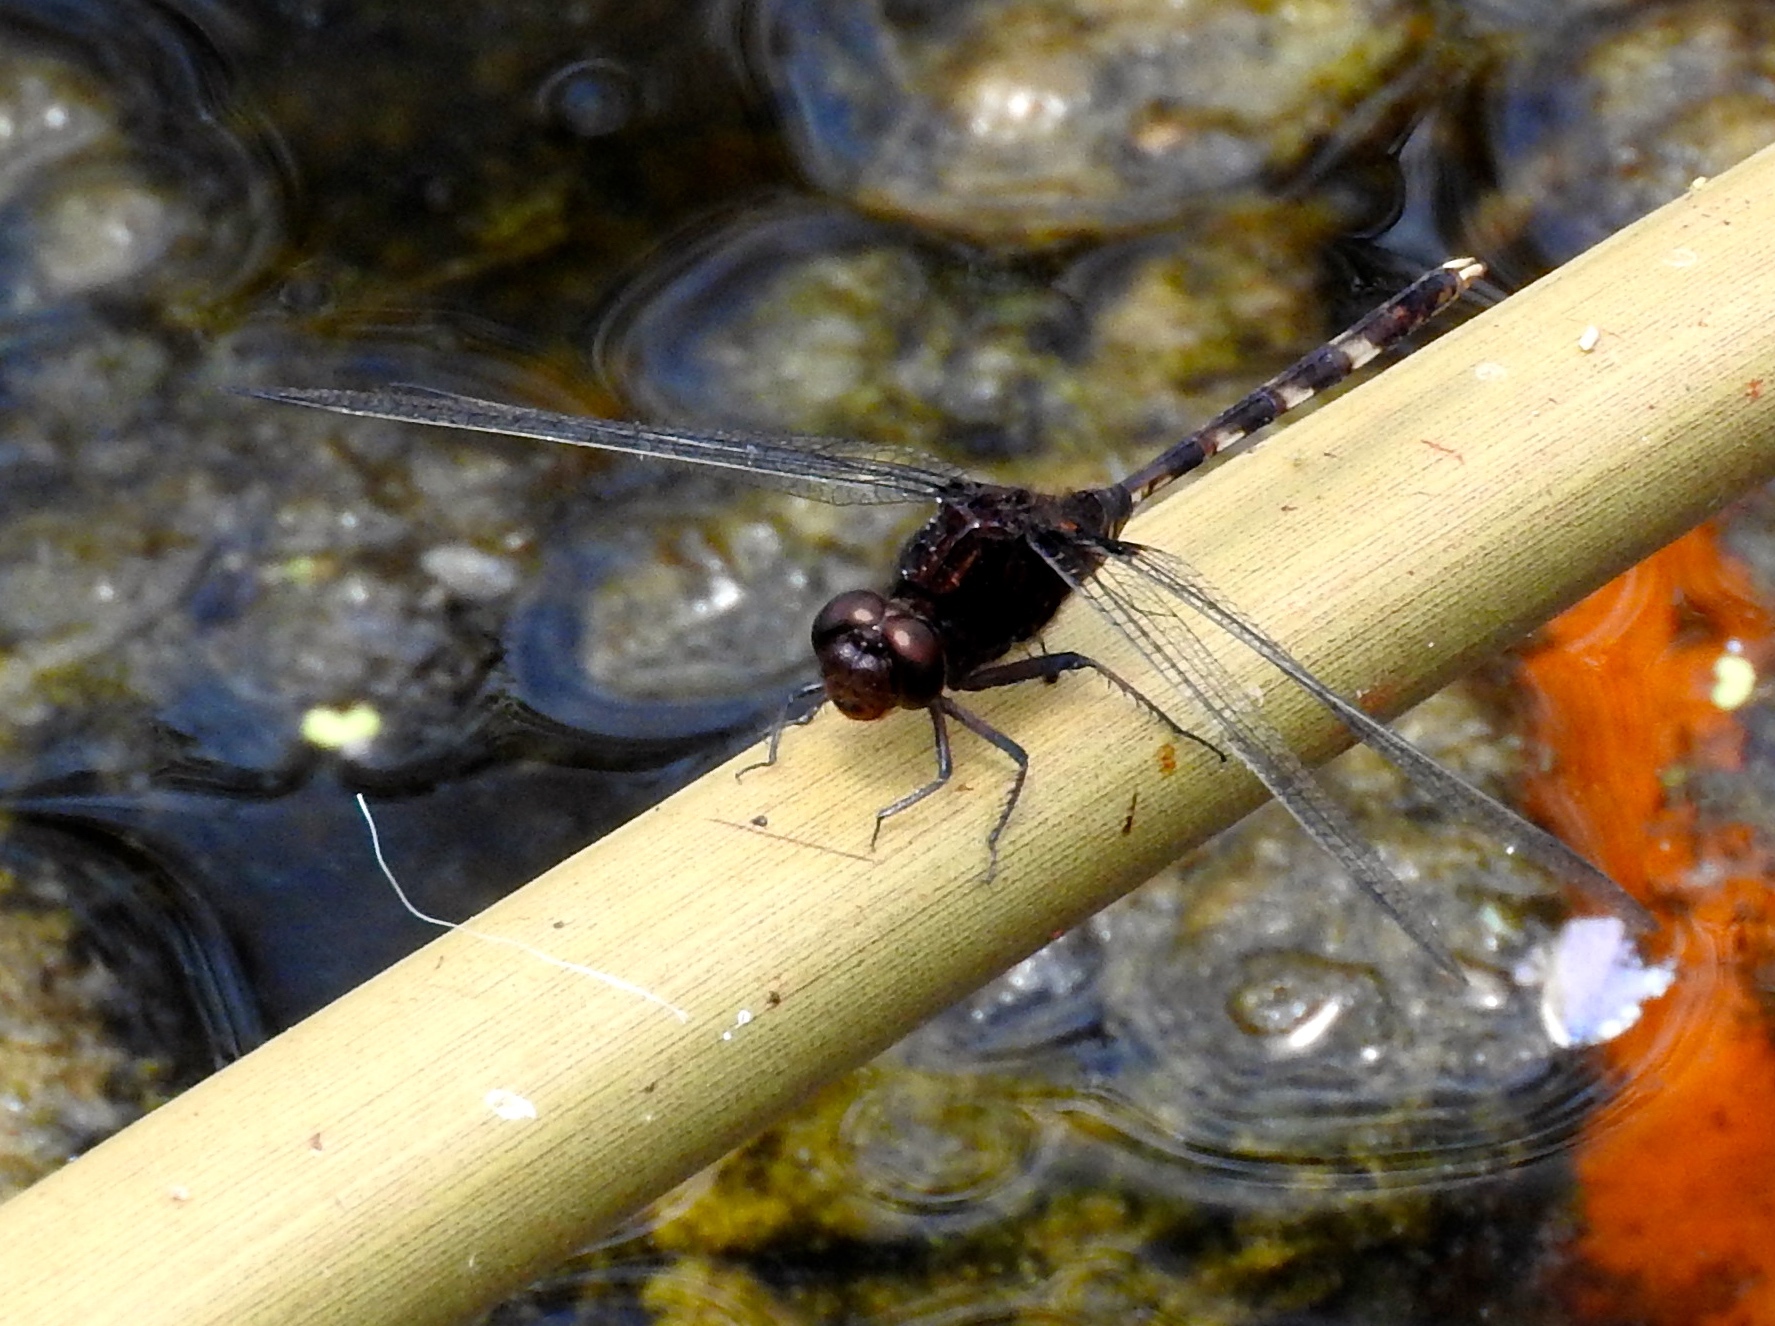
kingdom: Animalia
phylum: Arthropoda
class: Insecta
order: Odonata
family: Libellulidae
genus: Erythemis
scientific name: Erythemis plebeja
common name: Pin-tailed pondhawk
